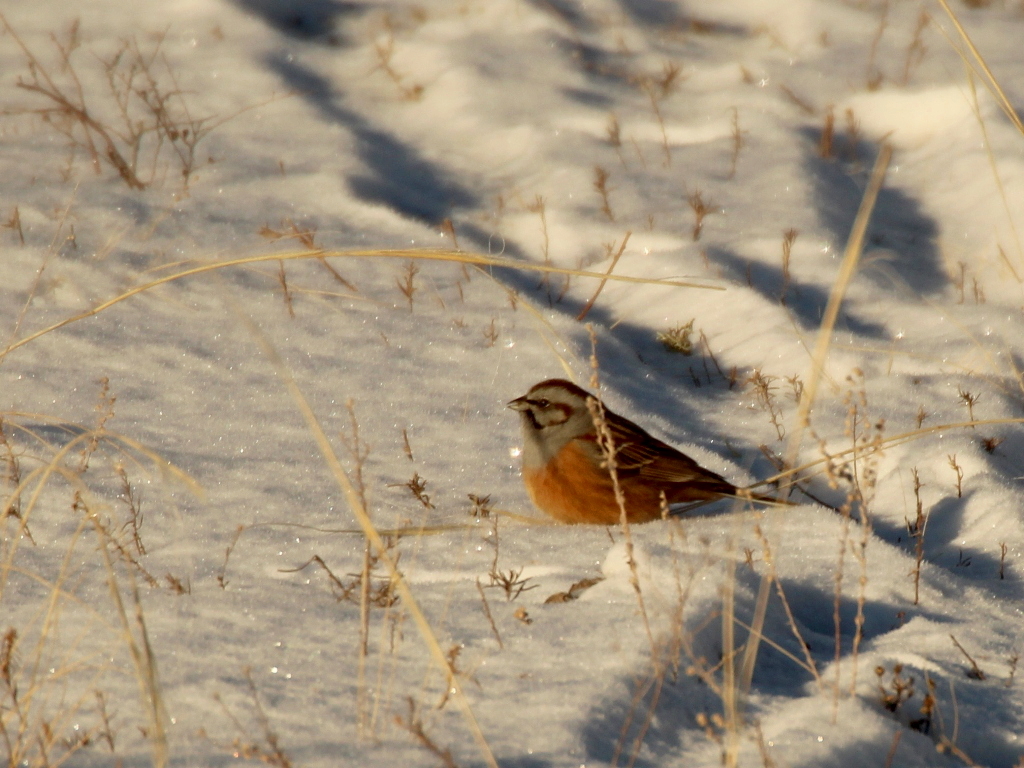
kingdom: Animalia
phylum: Chordata
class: Aves
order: Passeriformes
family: Emberizidae
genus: Emberiza
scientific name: Emberiza godlewskii
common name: Godlewski's bunting
